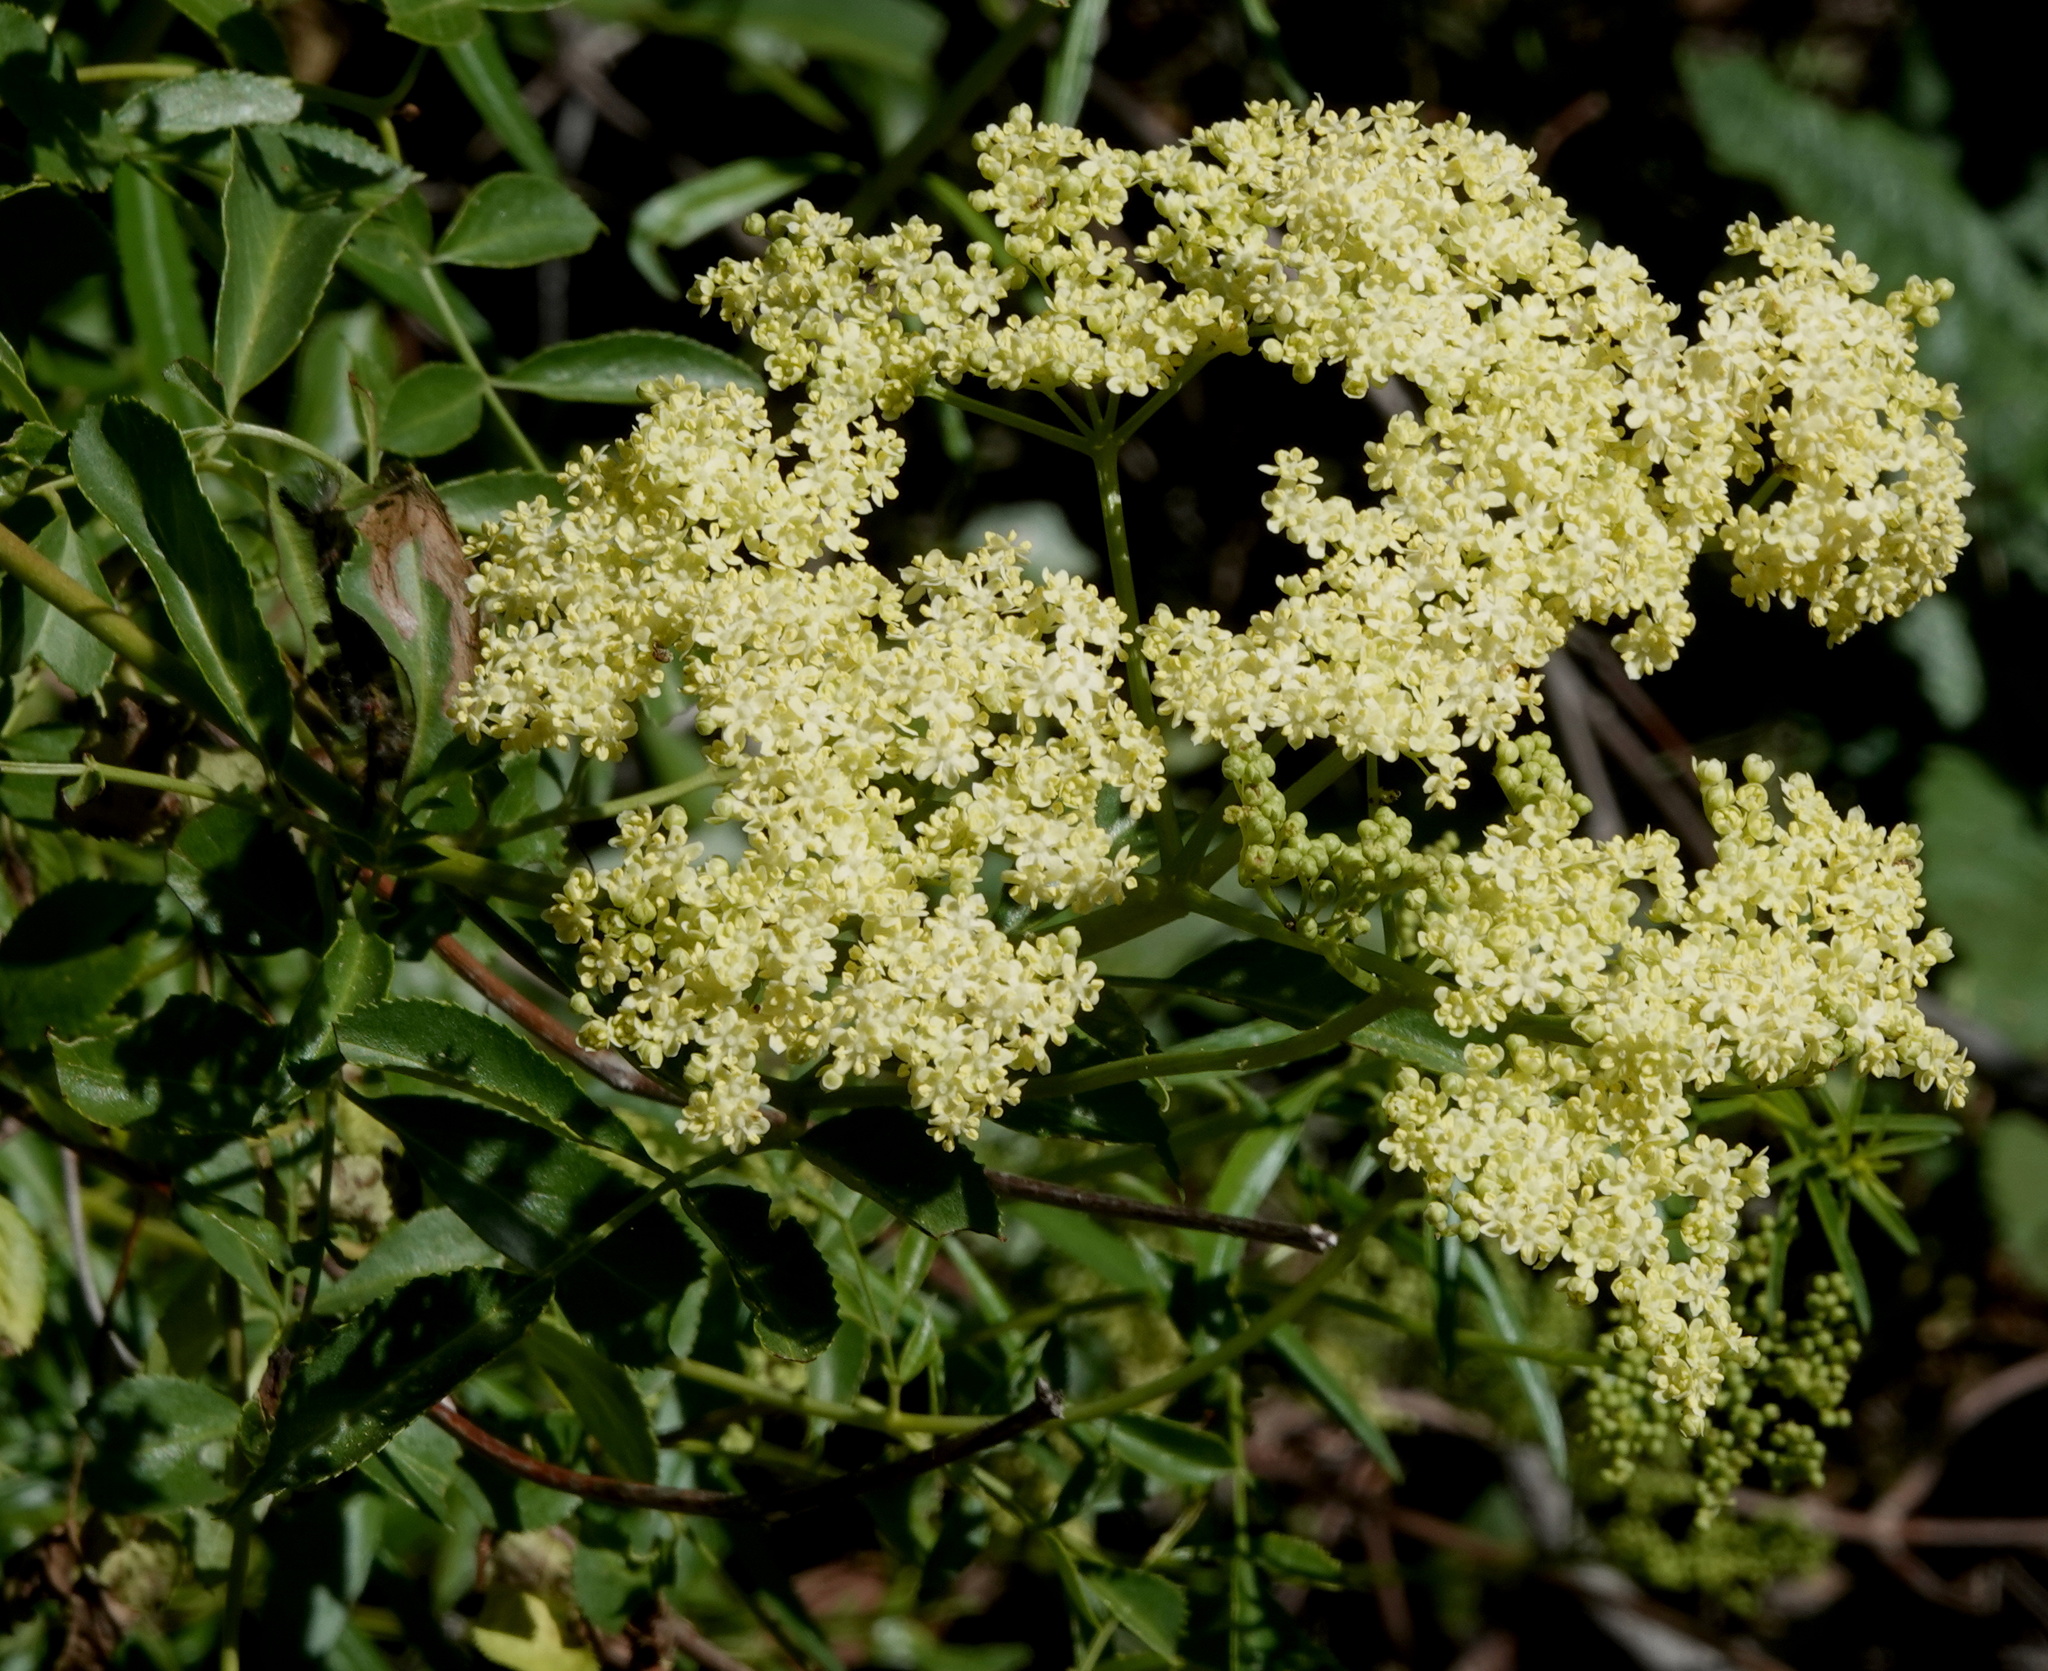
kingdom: Plantae
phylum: Tracheophyta
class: Magnoliopsida
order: Dipsacales
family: Viburnaceae
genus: Sambucus
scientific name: Sambucus cerulea
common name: Blue elder
